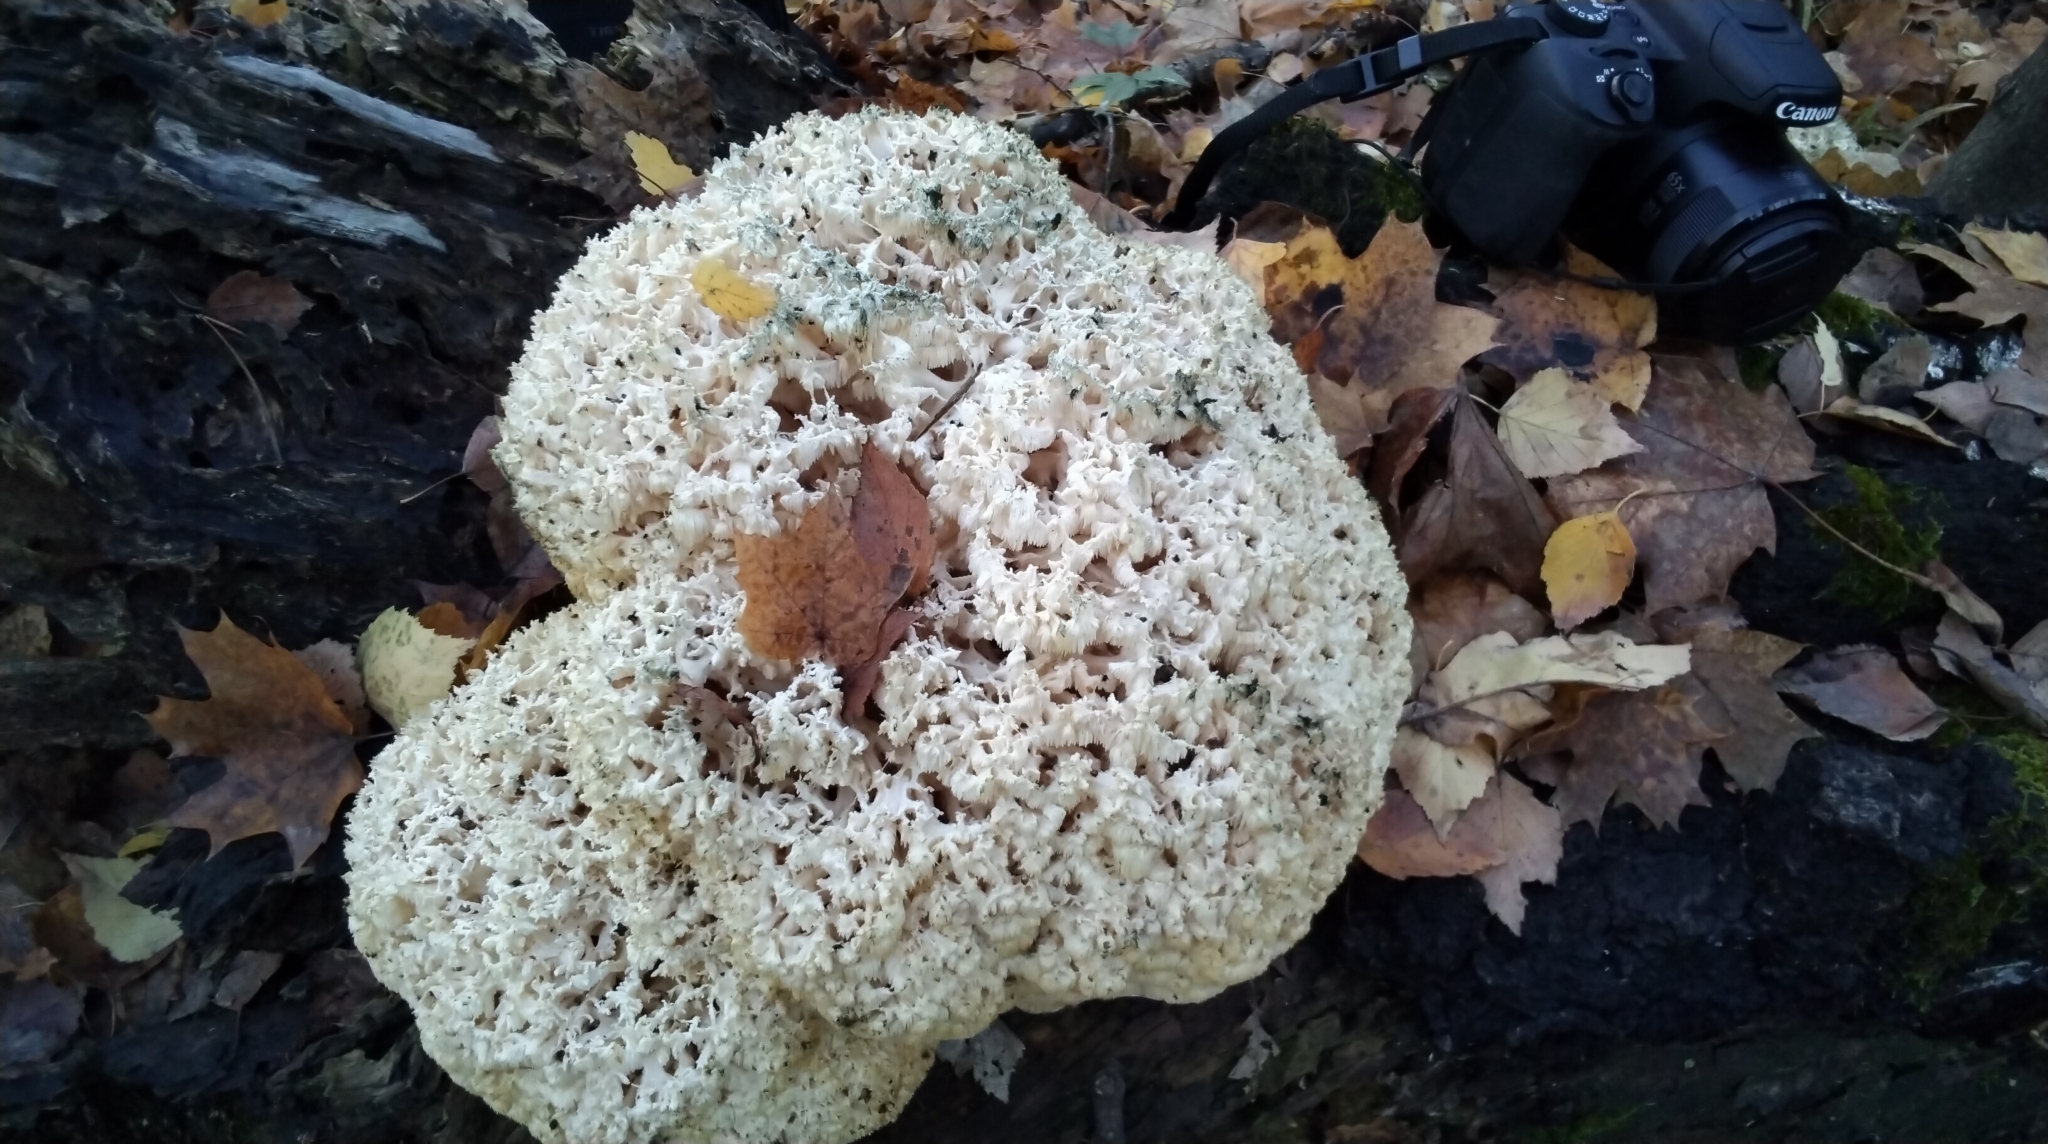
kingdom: Fungi
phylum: Basidiomycota
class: Agaricomycetes
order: Russulales
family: Hericiaceae
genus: Hericium
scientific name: Hericium coralloides
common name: Coral tooth
